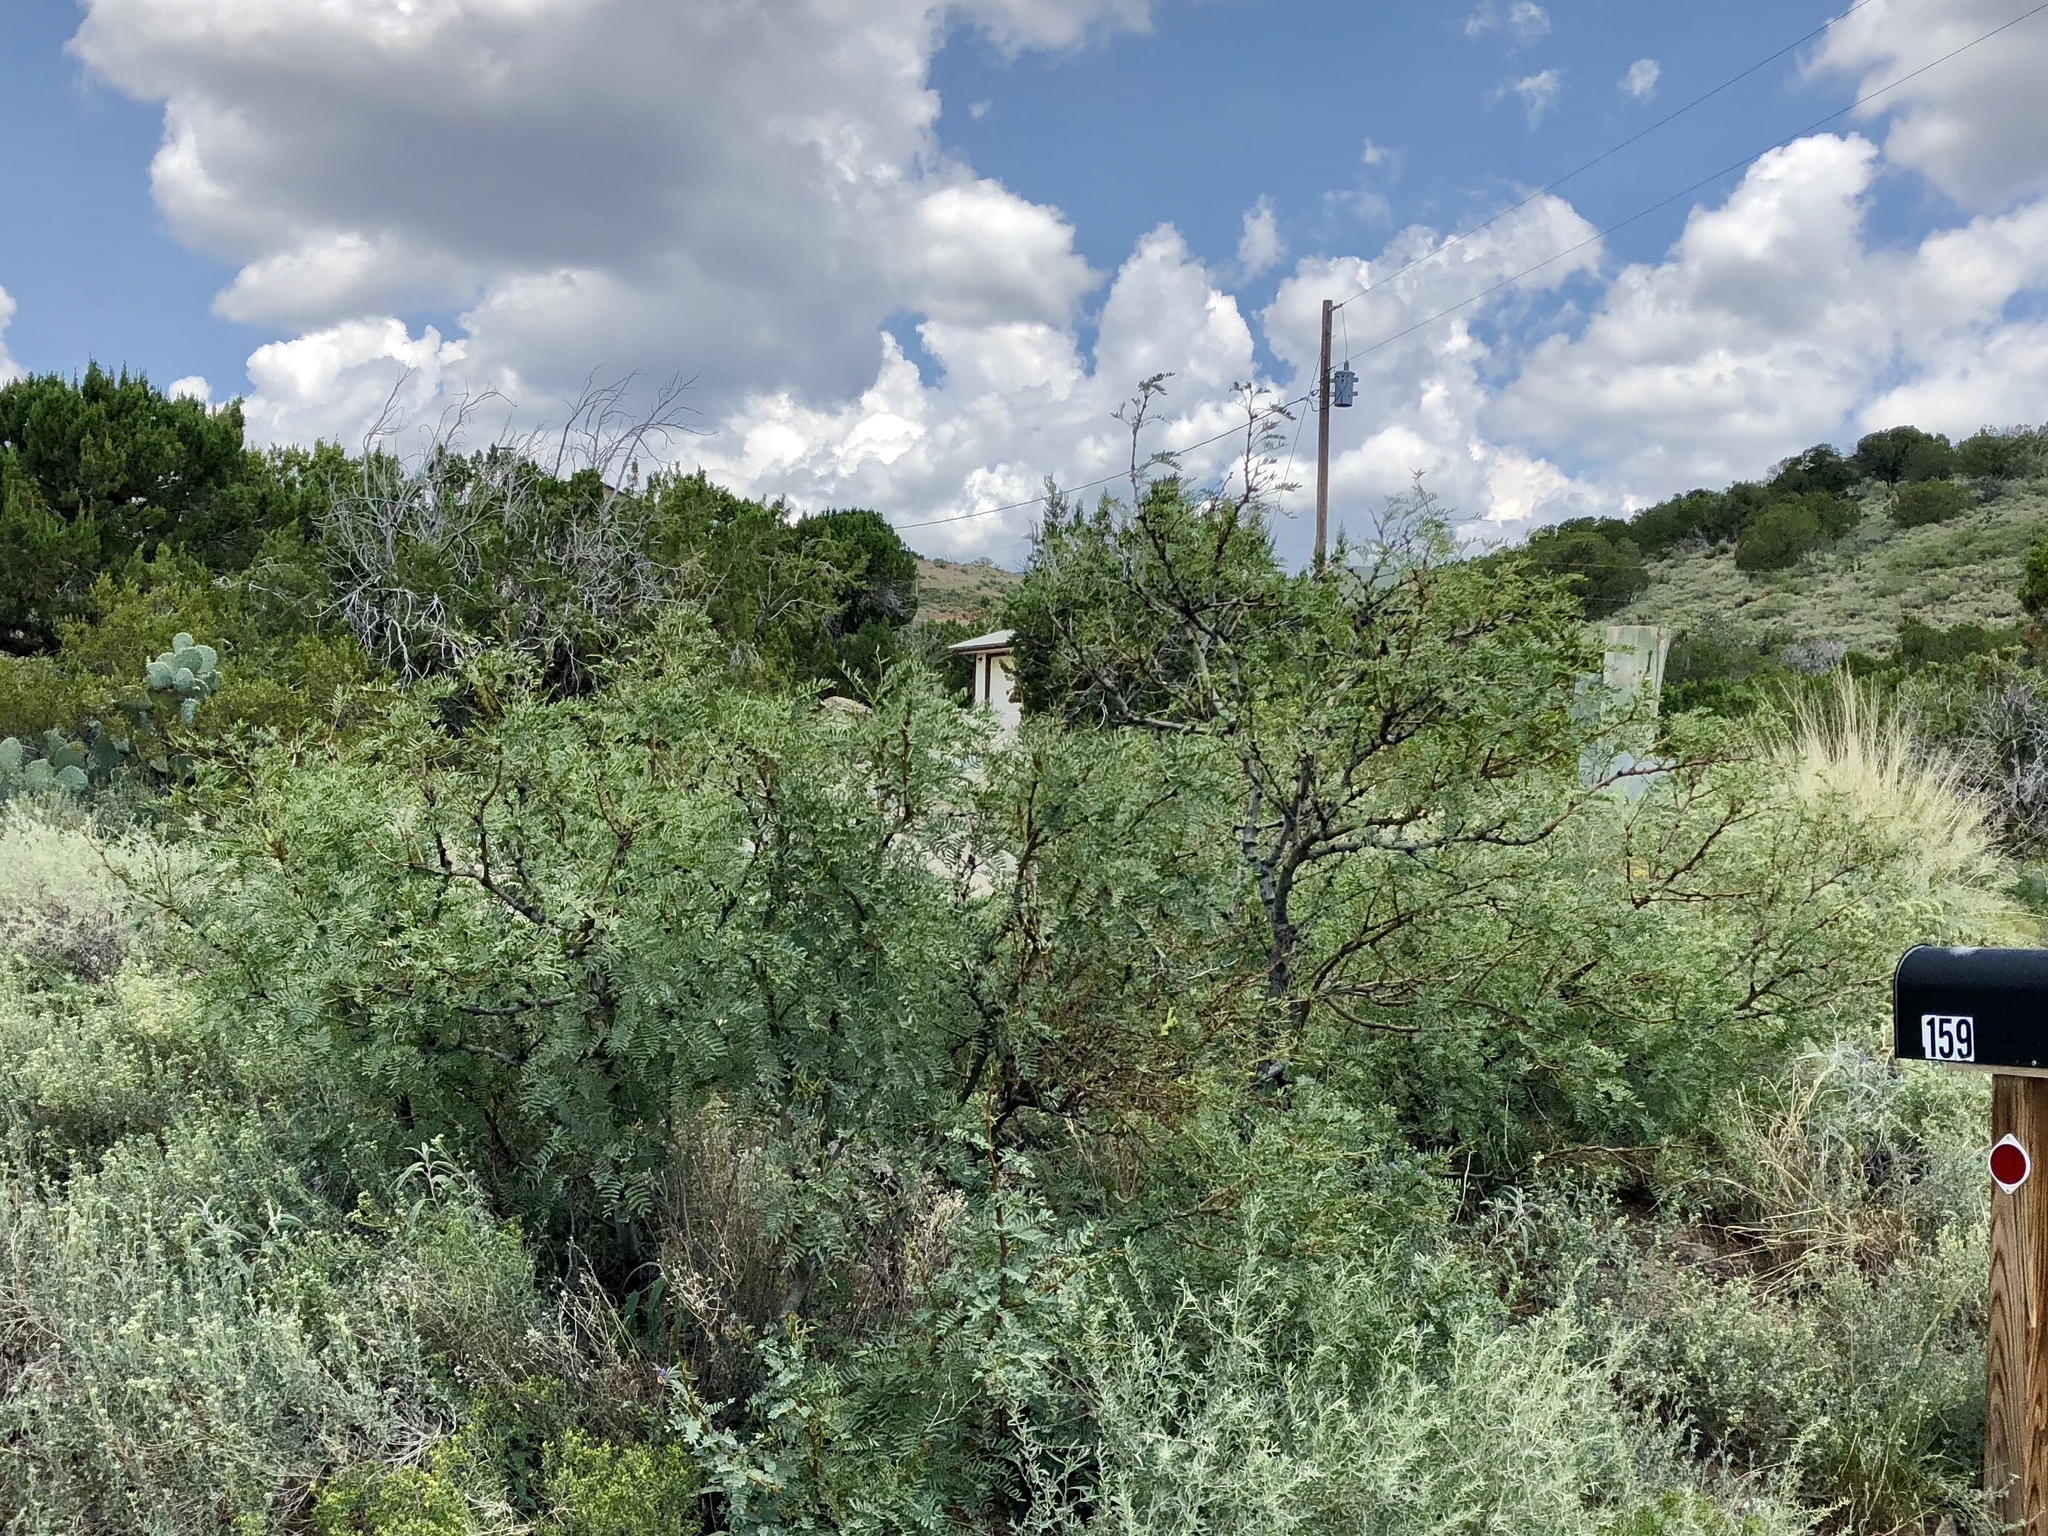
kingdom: Plantae
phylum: Tracheophyta
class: Magnoliopsida
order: Fabales
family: Fabaceae
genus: Prosopis
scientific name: Prosopis glandulosa
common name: Honey mesquite
